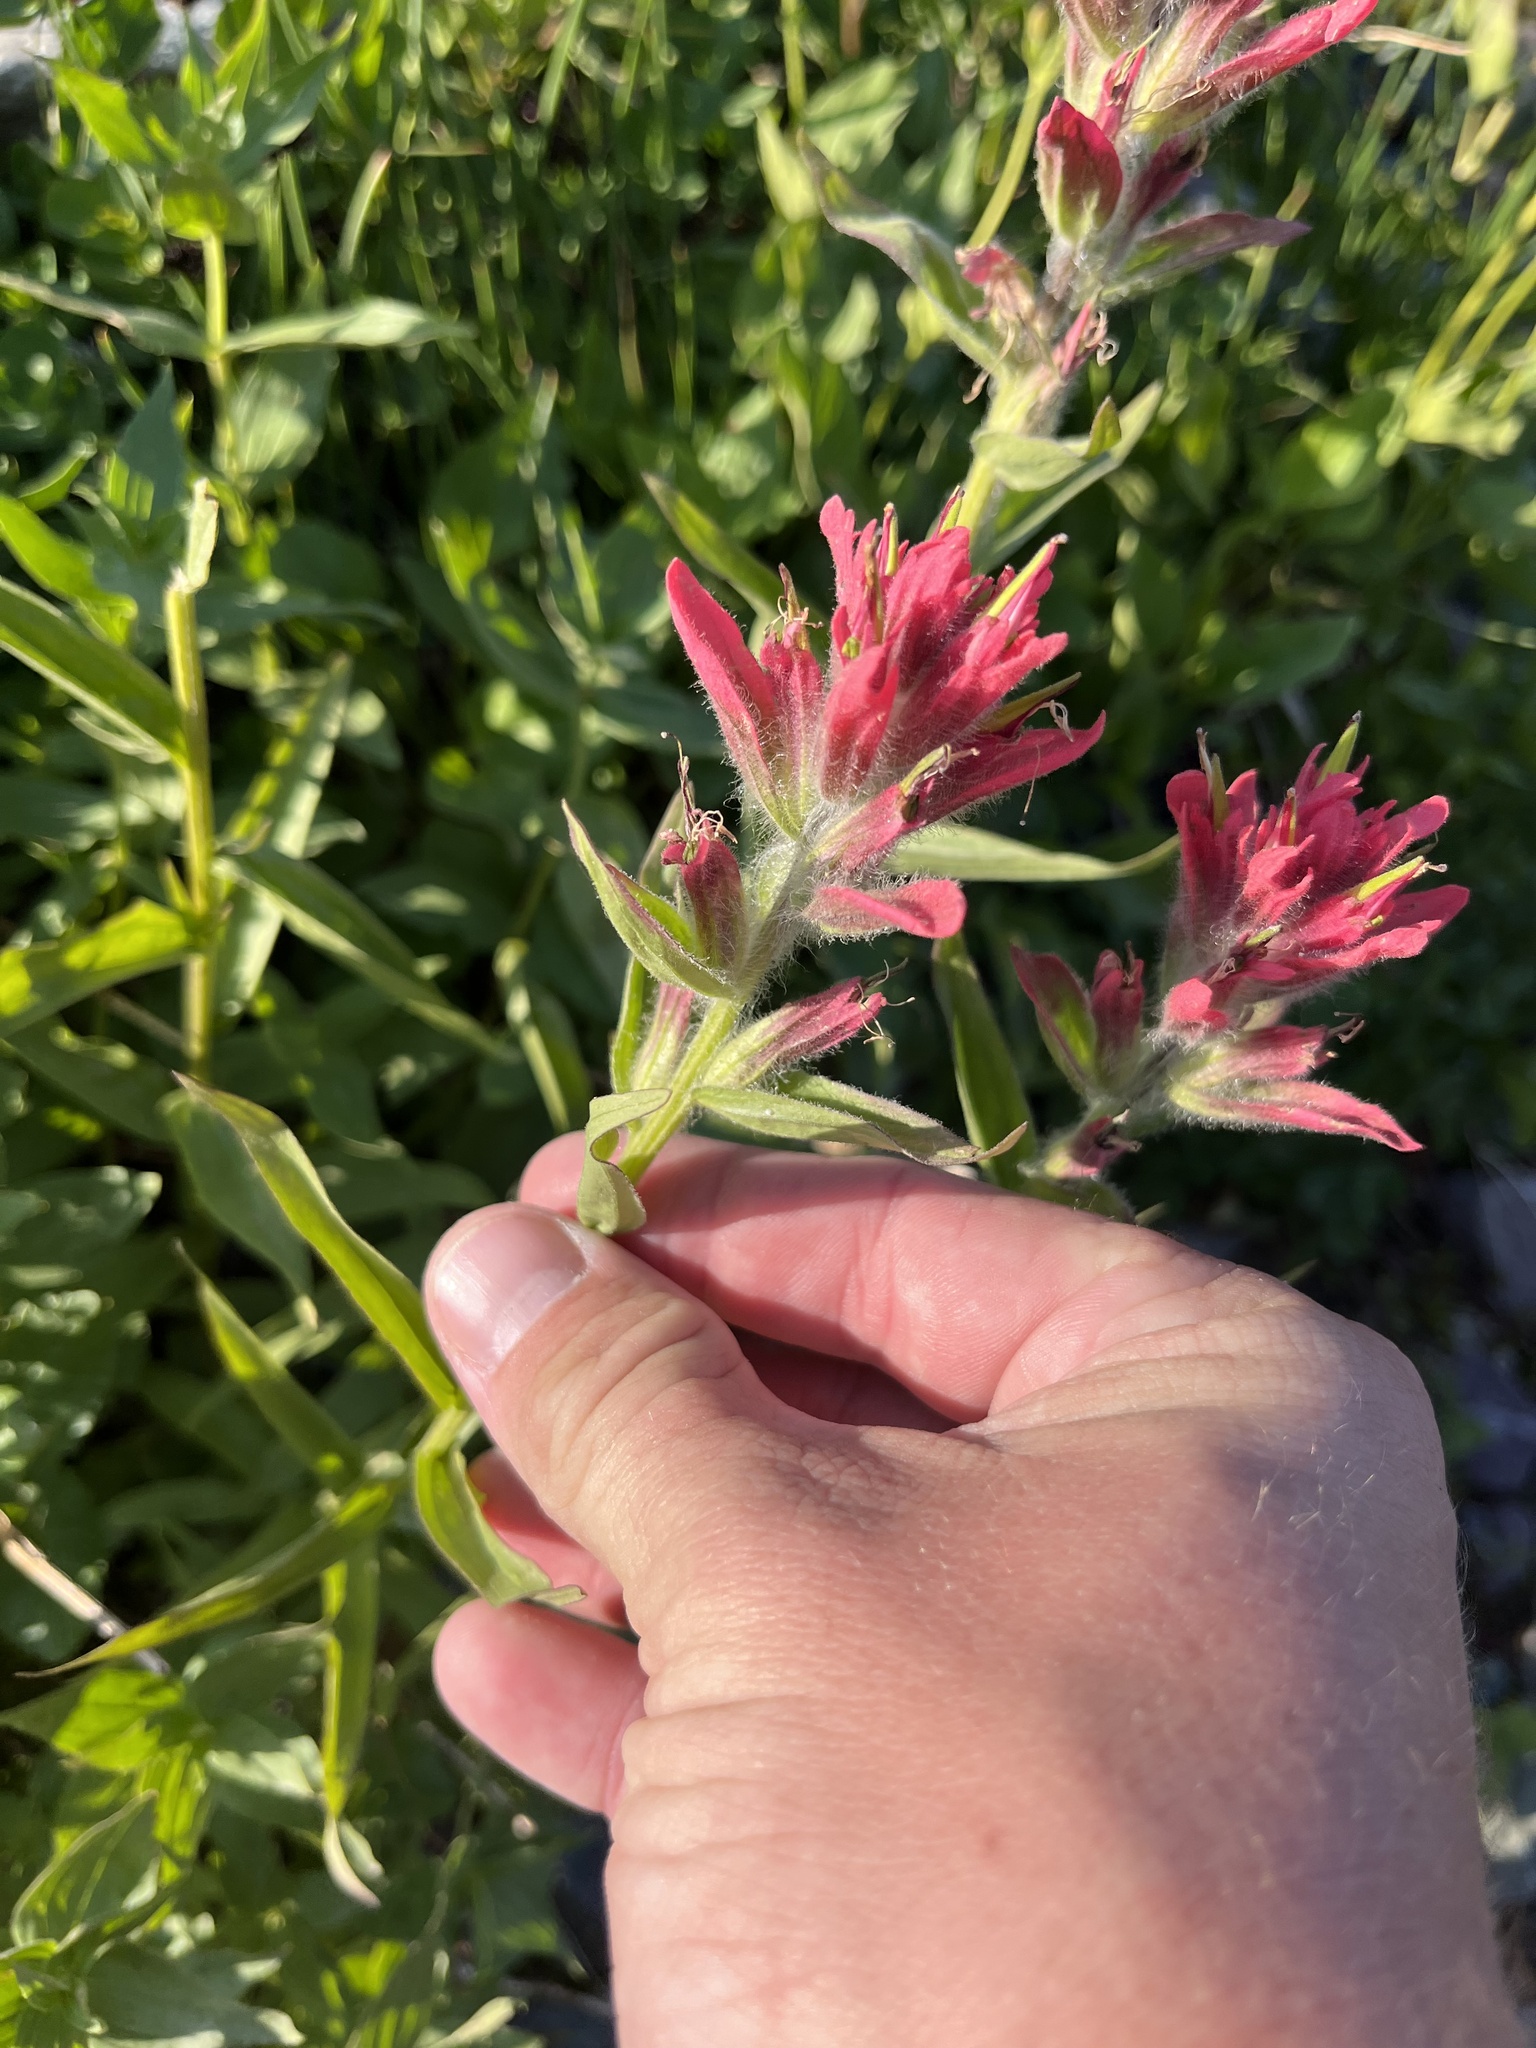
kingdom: Plantae
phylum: Tracheophyta
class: Magnoliopsida
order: Lamiales
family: Orobanchaceae
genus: Castilleja
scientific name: Castilleja rhexifolia
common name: Rocky mountain paintbrush
